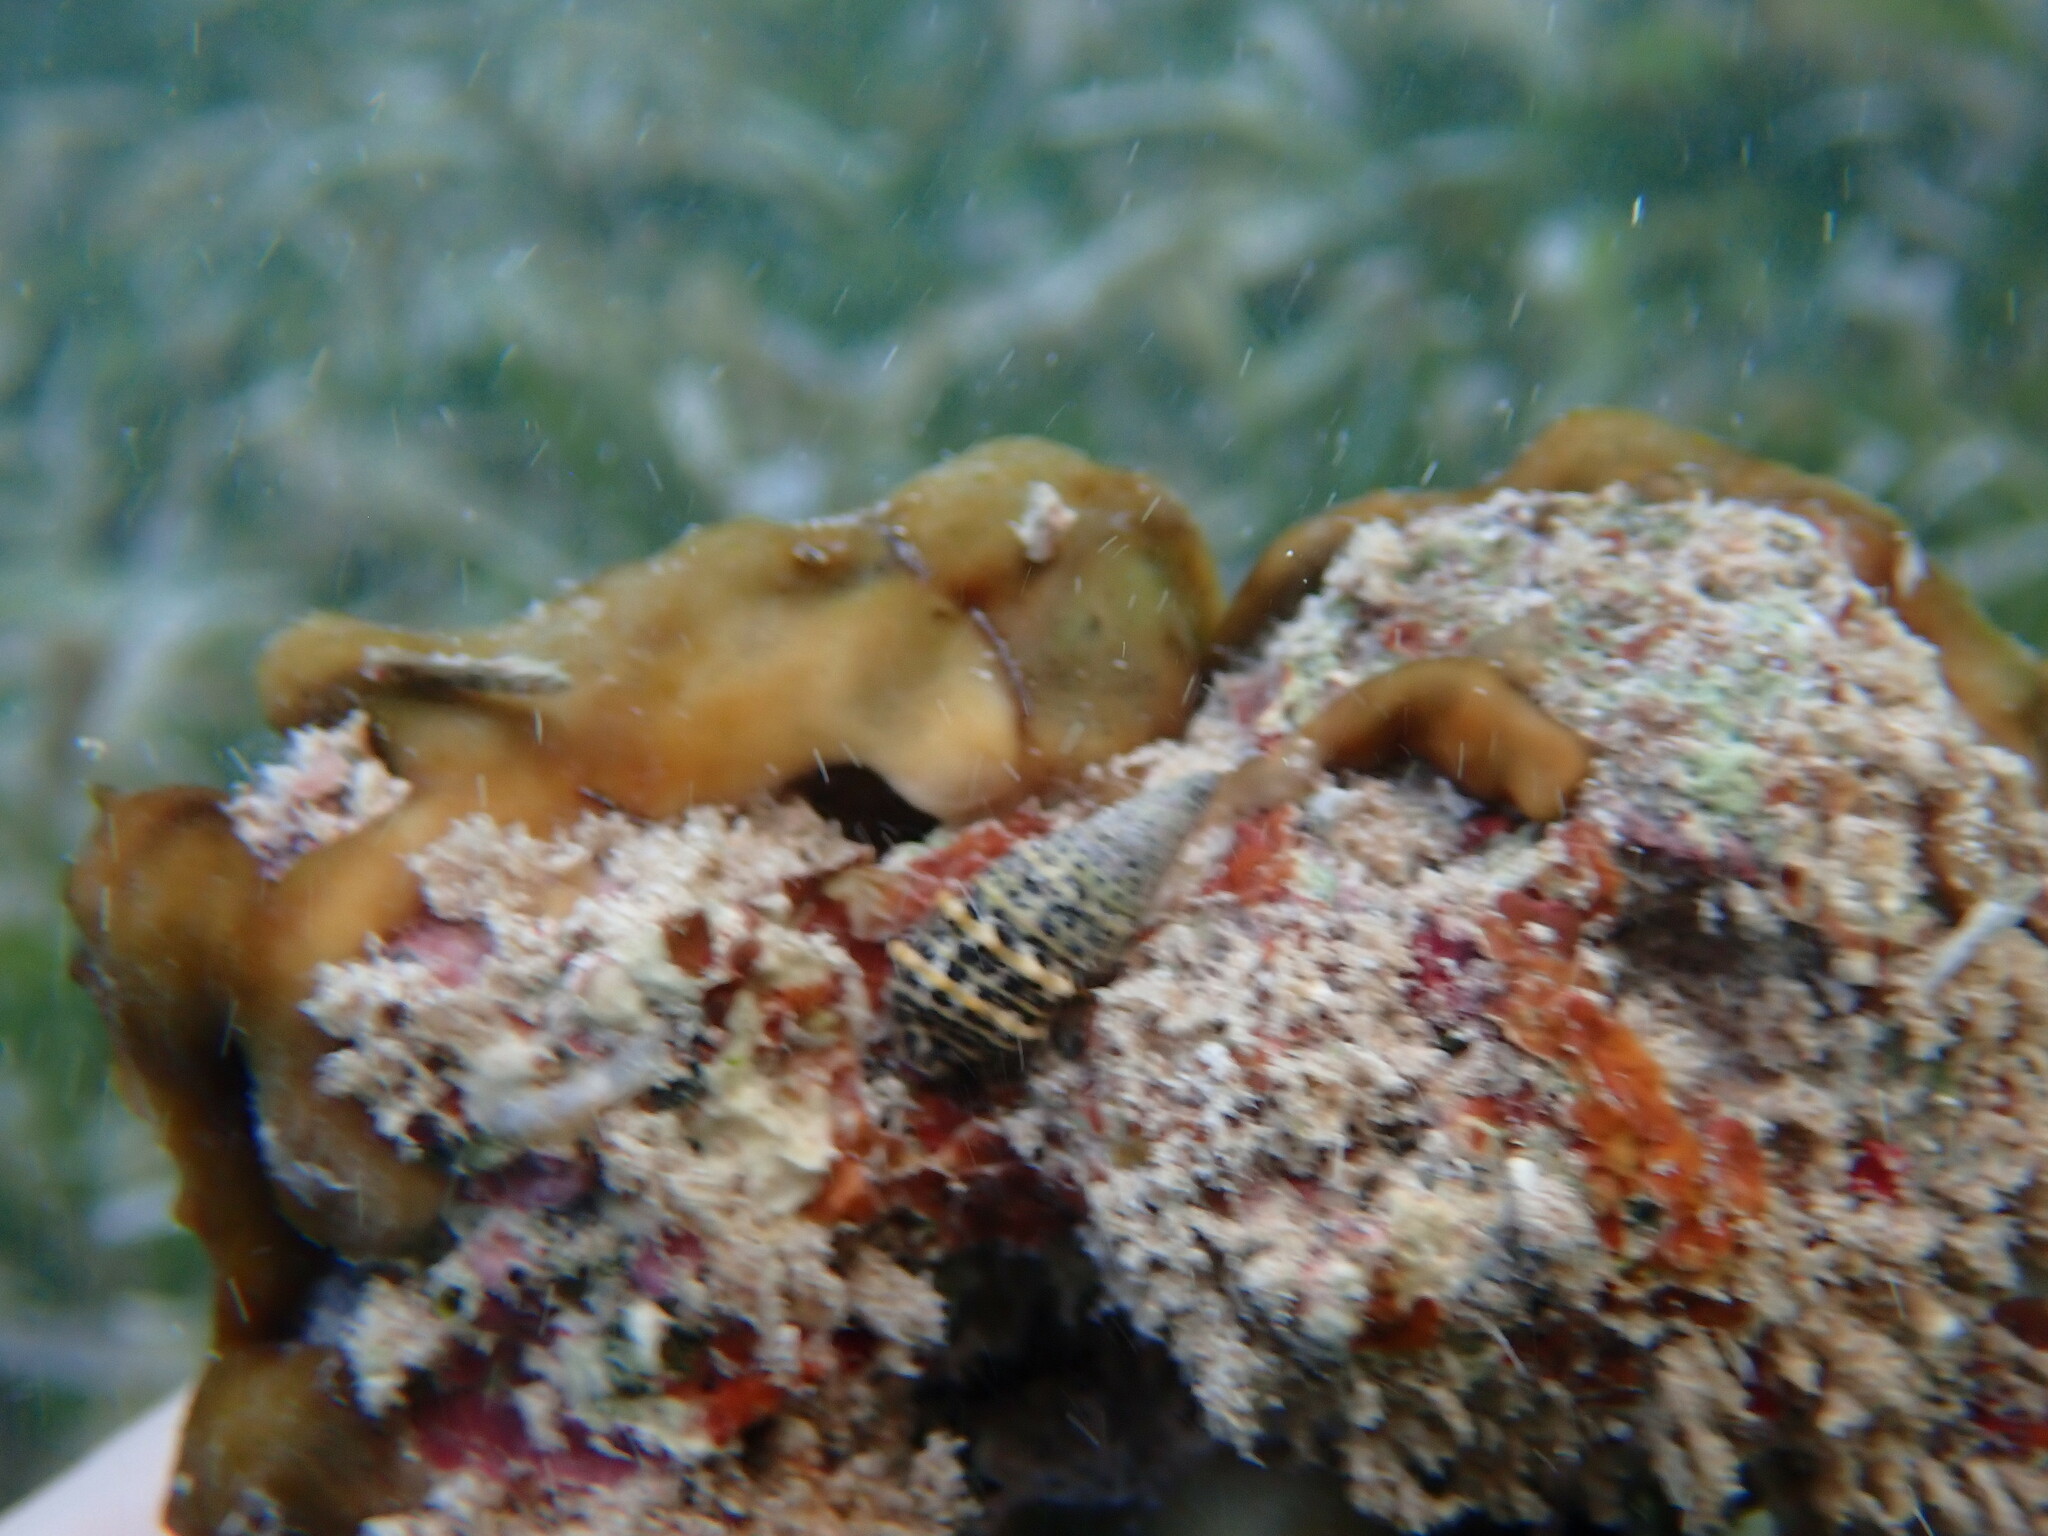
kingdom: Animalia
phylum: Mollusca
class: Gastropoda
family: Cerithiidae
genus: Cerithium
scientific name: Cerithium litteratum
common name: Stocky cerith
